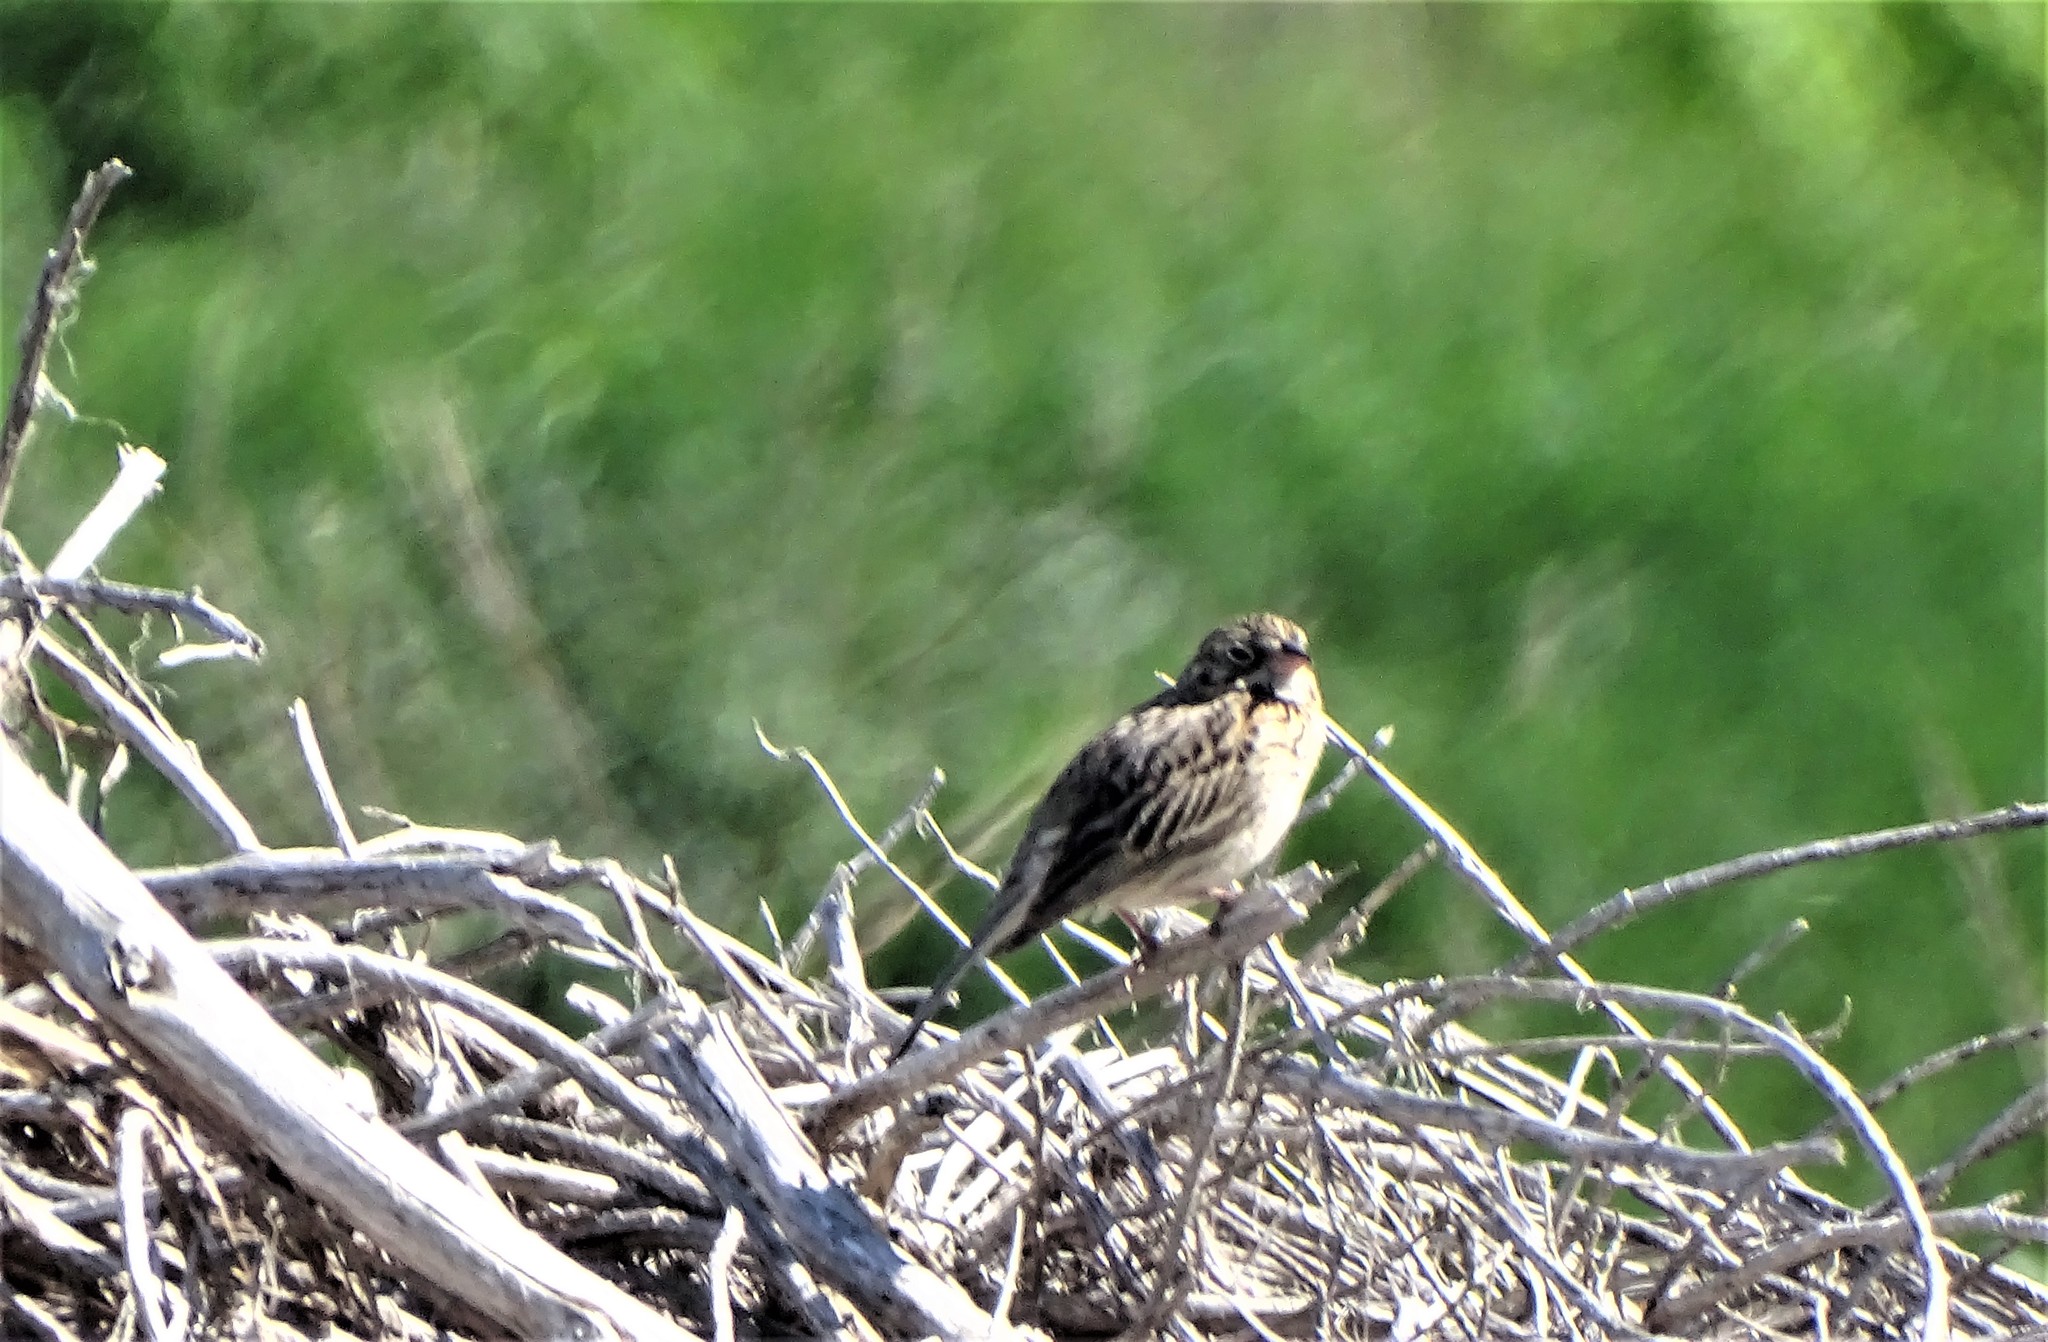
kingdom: Animalia
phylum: Chordata
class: Aves
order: Passeriformes
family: Passerellidae
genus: Pooecetes
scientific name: Pooecetes gramineus
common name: Vesper sparrow
